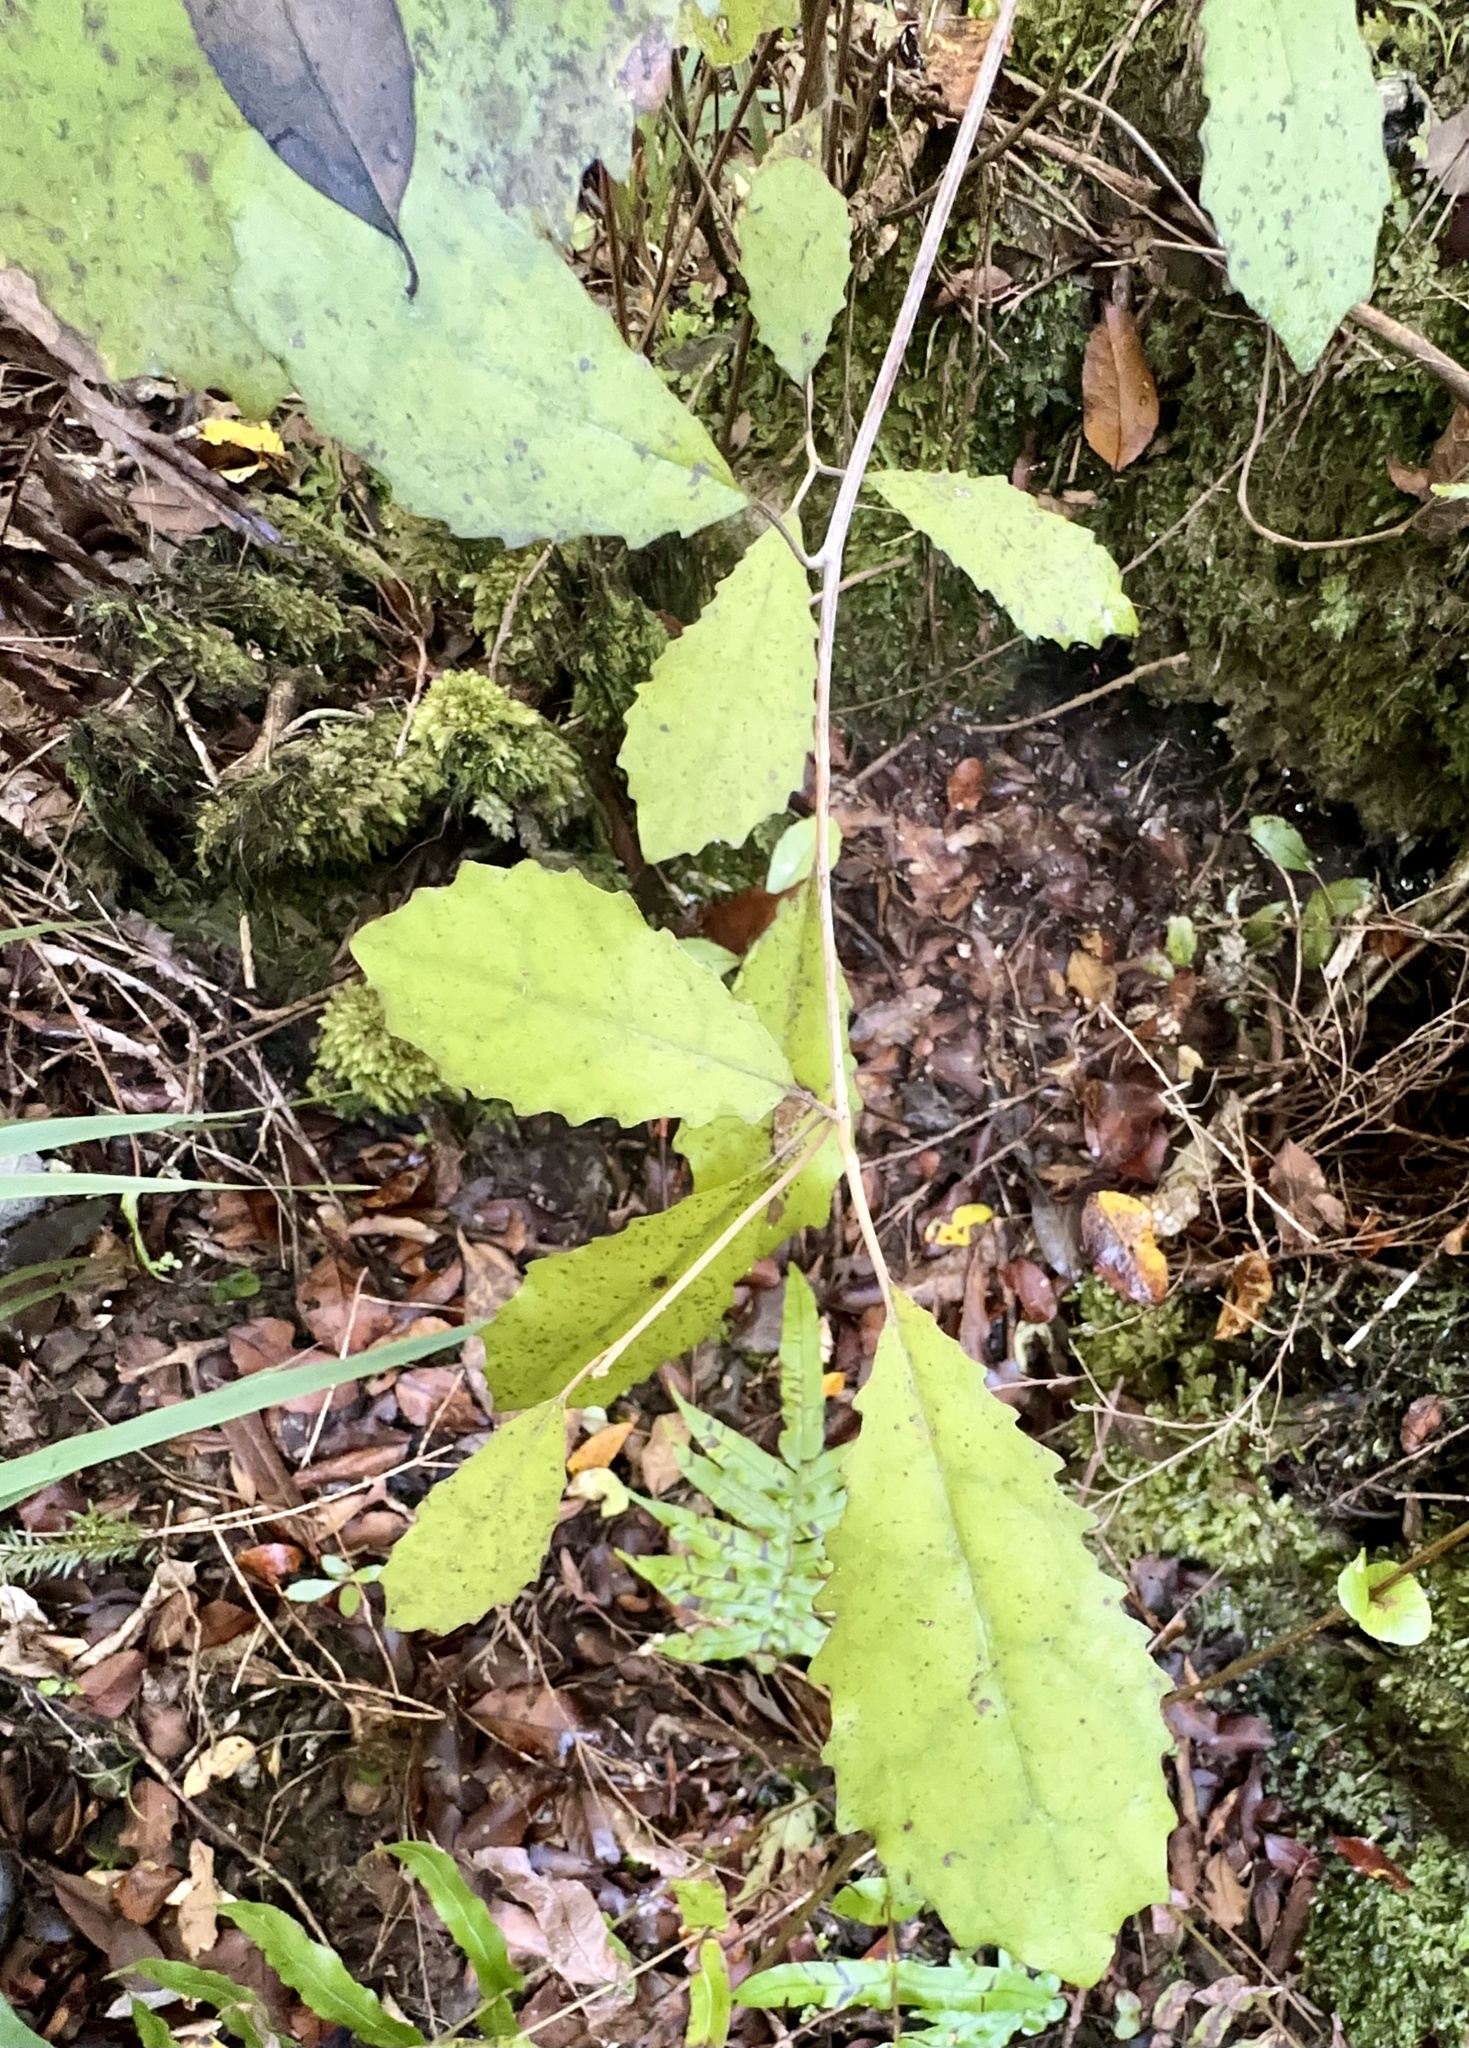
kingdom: Plantae
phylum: Tracheophyta
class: Magnoliopsida
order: Asterales
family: Asteraceae
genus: Olearia
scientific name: Olearia rani
